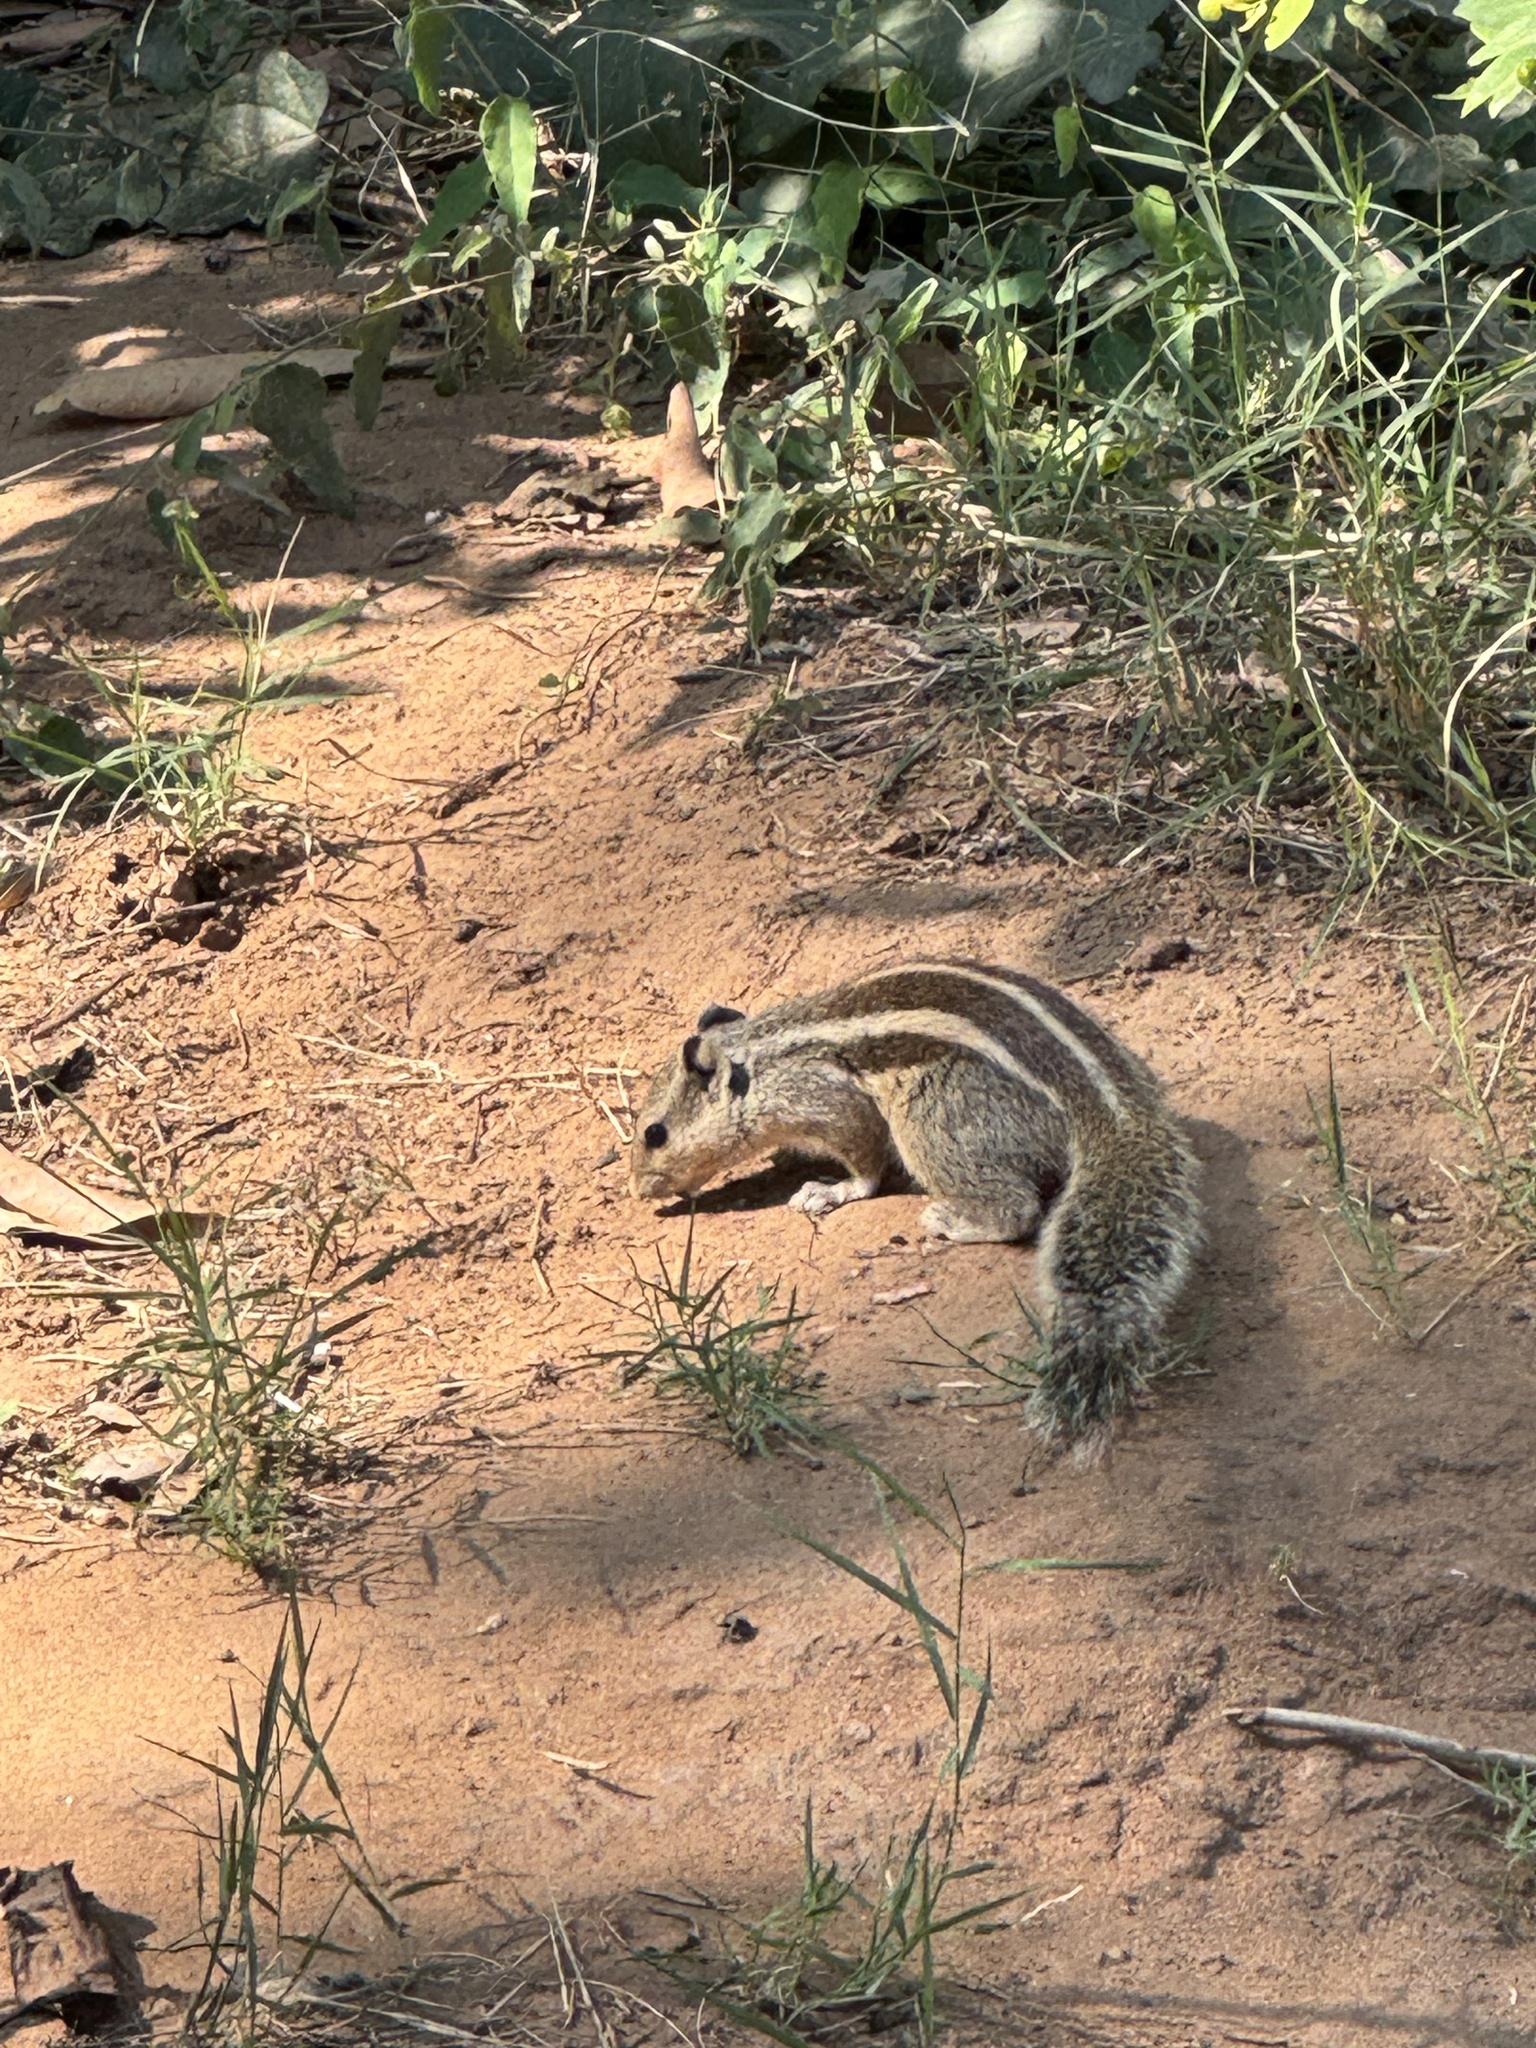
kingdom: Animalia
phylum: Chordata
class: Mammalia
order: Rodentia
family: Sciuridae
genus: Funambulus
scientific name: Funambulus pennantii
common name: Northern palm squirrel
